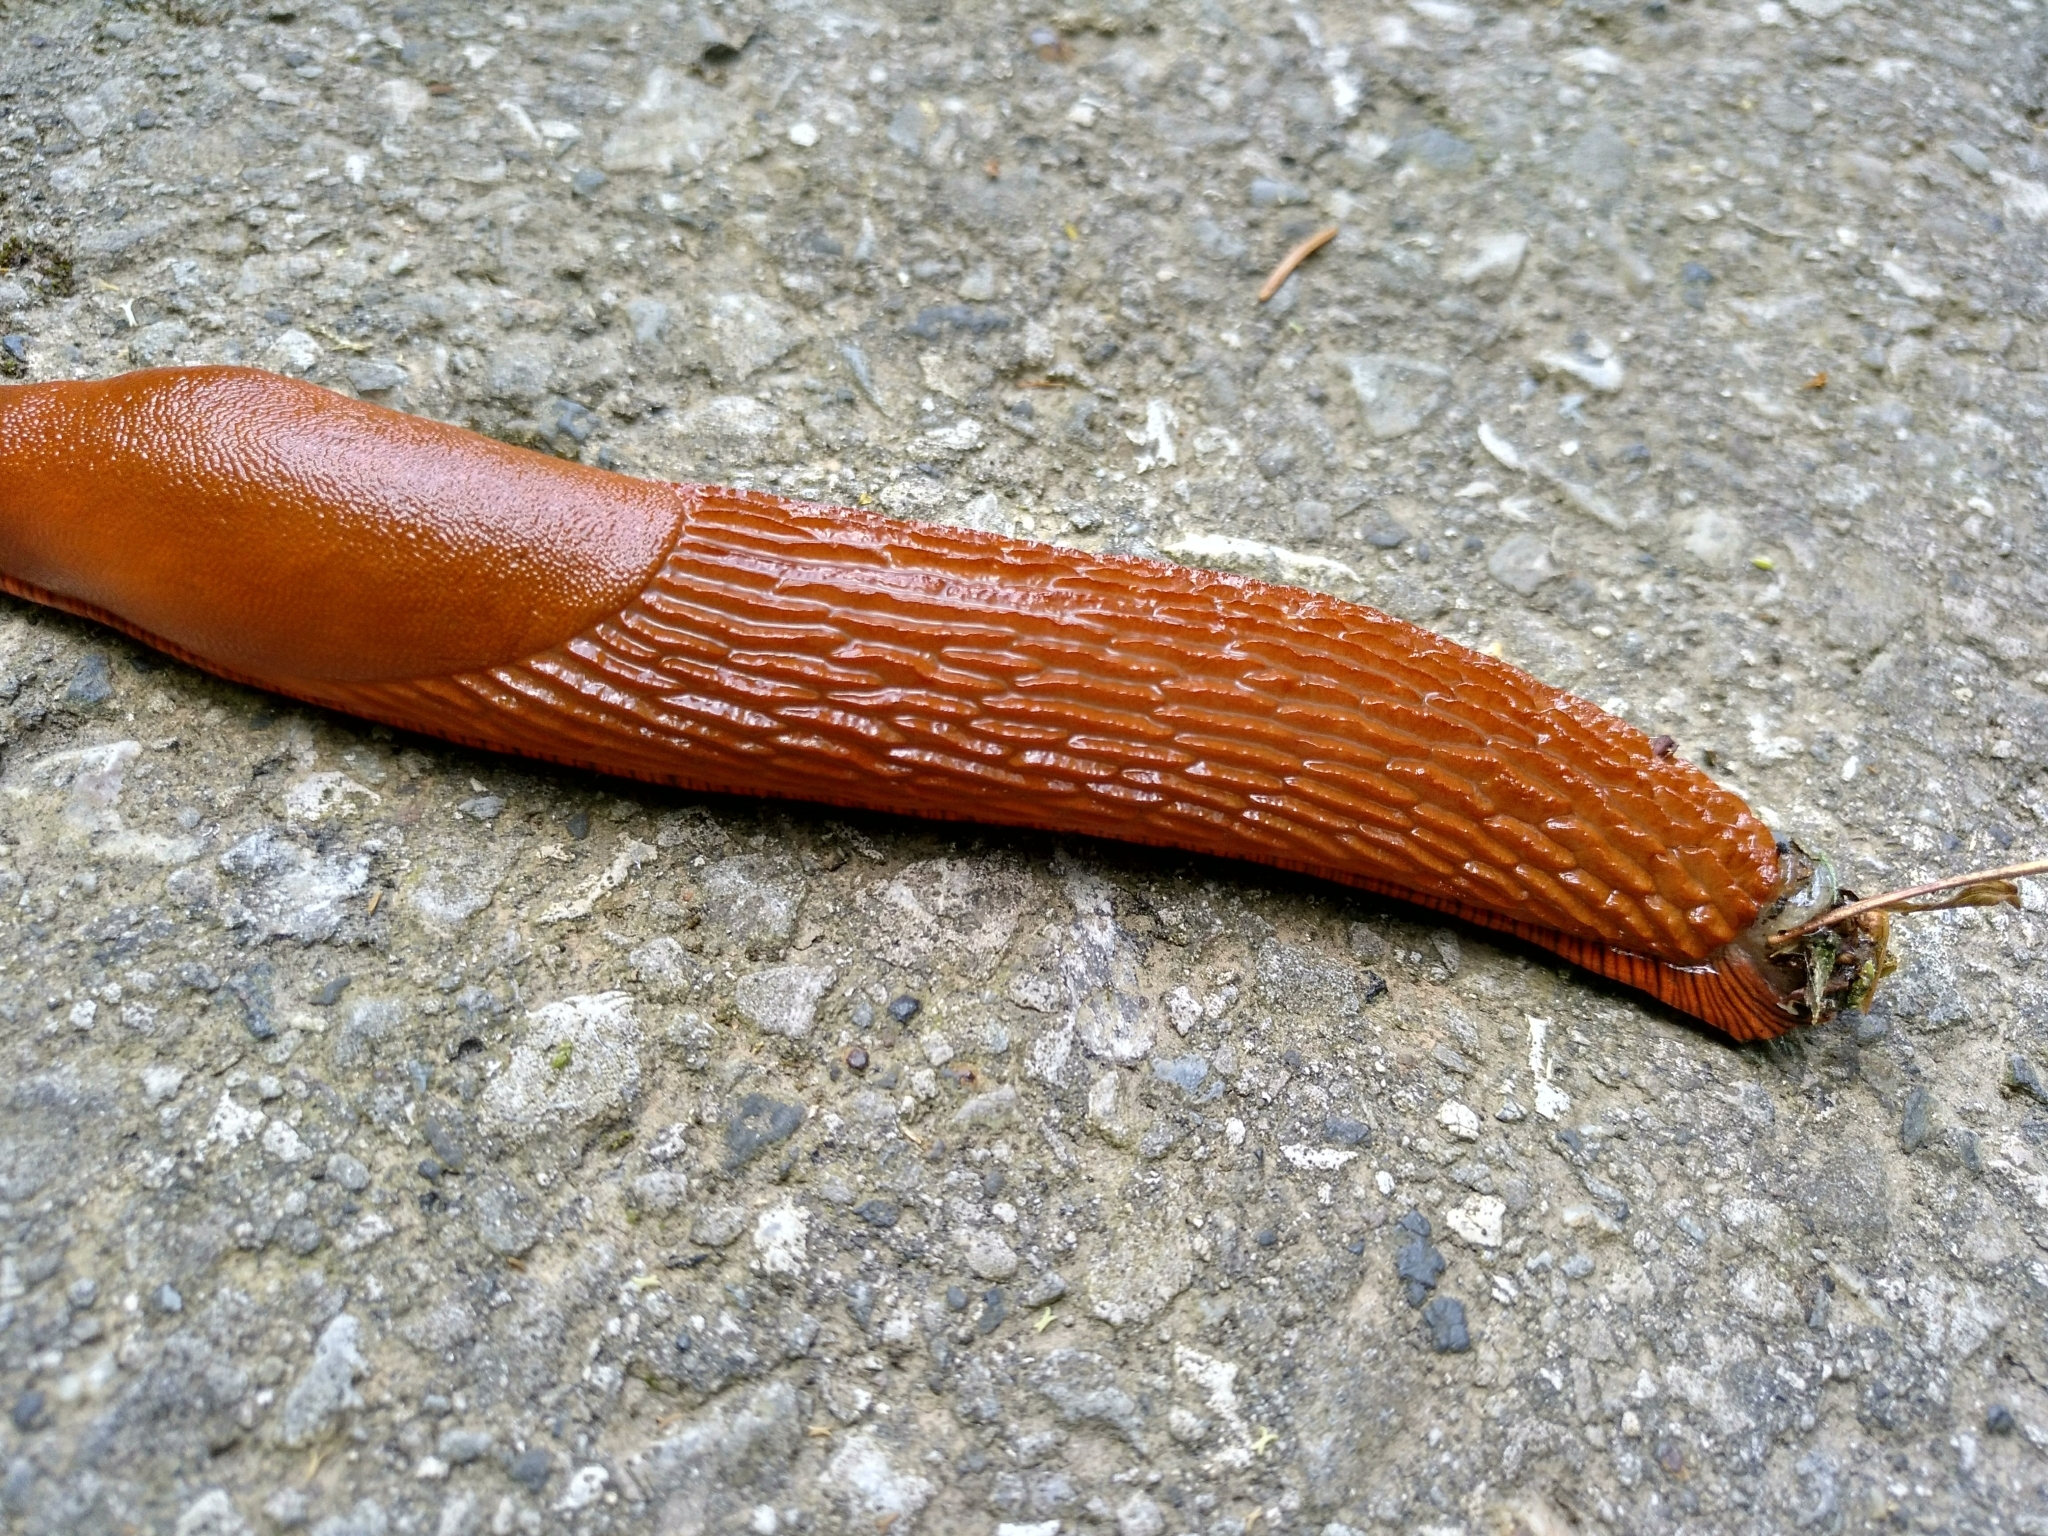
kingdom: Animalia
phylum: Mollusca
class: Gastropoda
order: Stylommatophora
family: Arionidae
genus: Arion
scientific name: Arion rufus
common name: Chocolate arion
